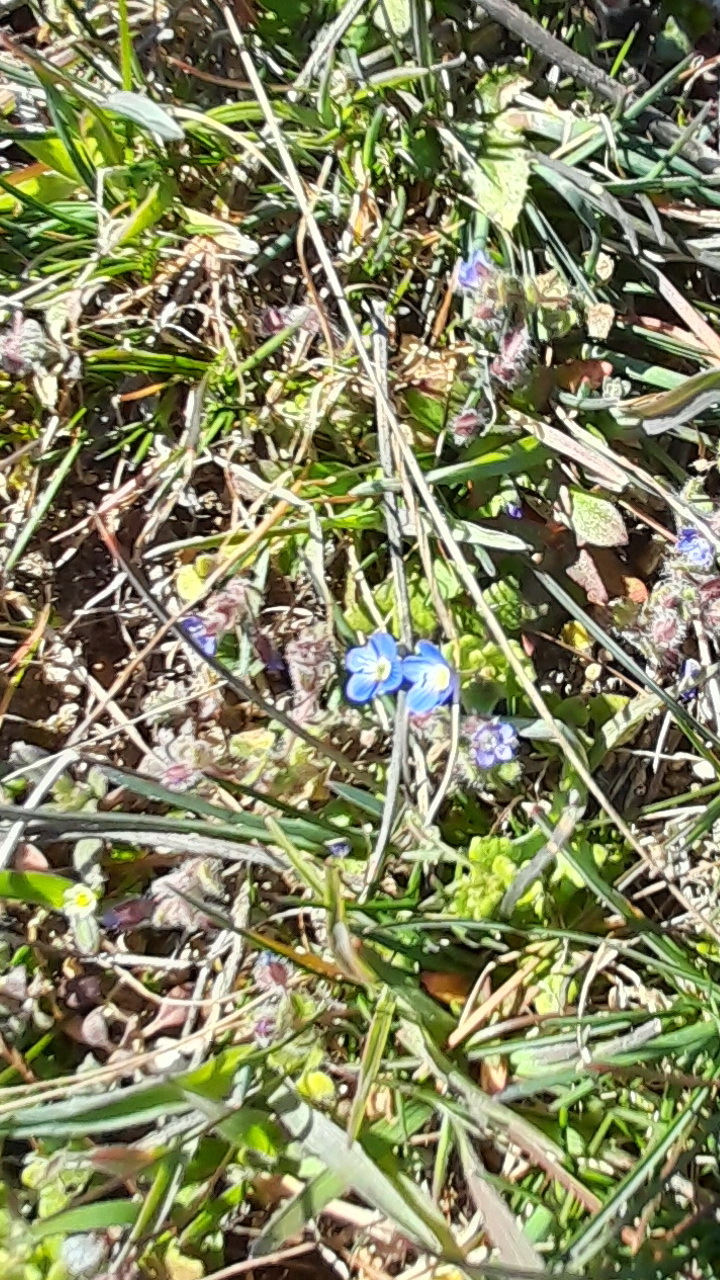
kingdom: Plantae
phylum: Tracheophyta
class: Magnoliopsida
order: Lamiales
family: Plantaginaceae
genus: Veronica
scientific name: Veronica hederifolia
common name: Ivy-leaved speedwell
